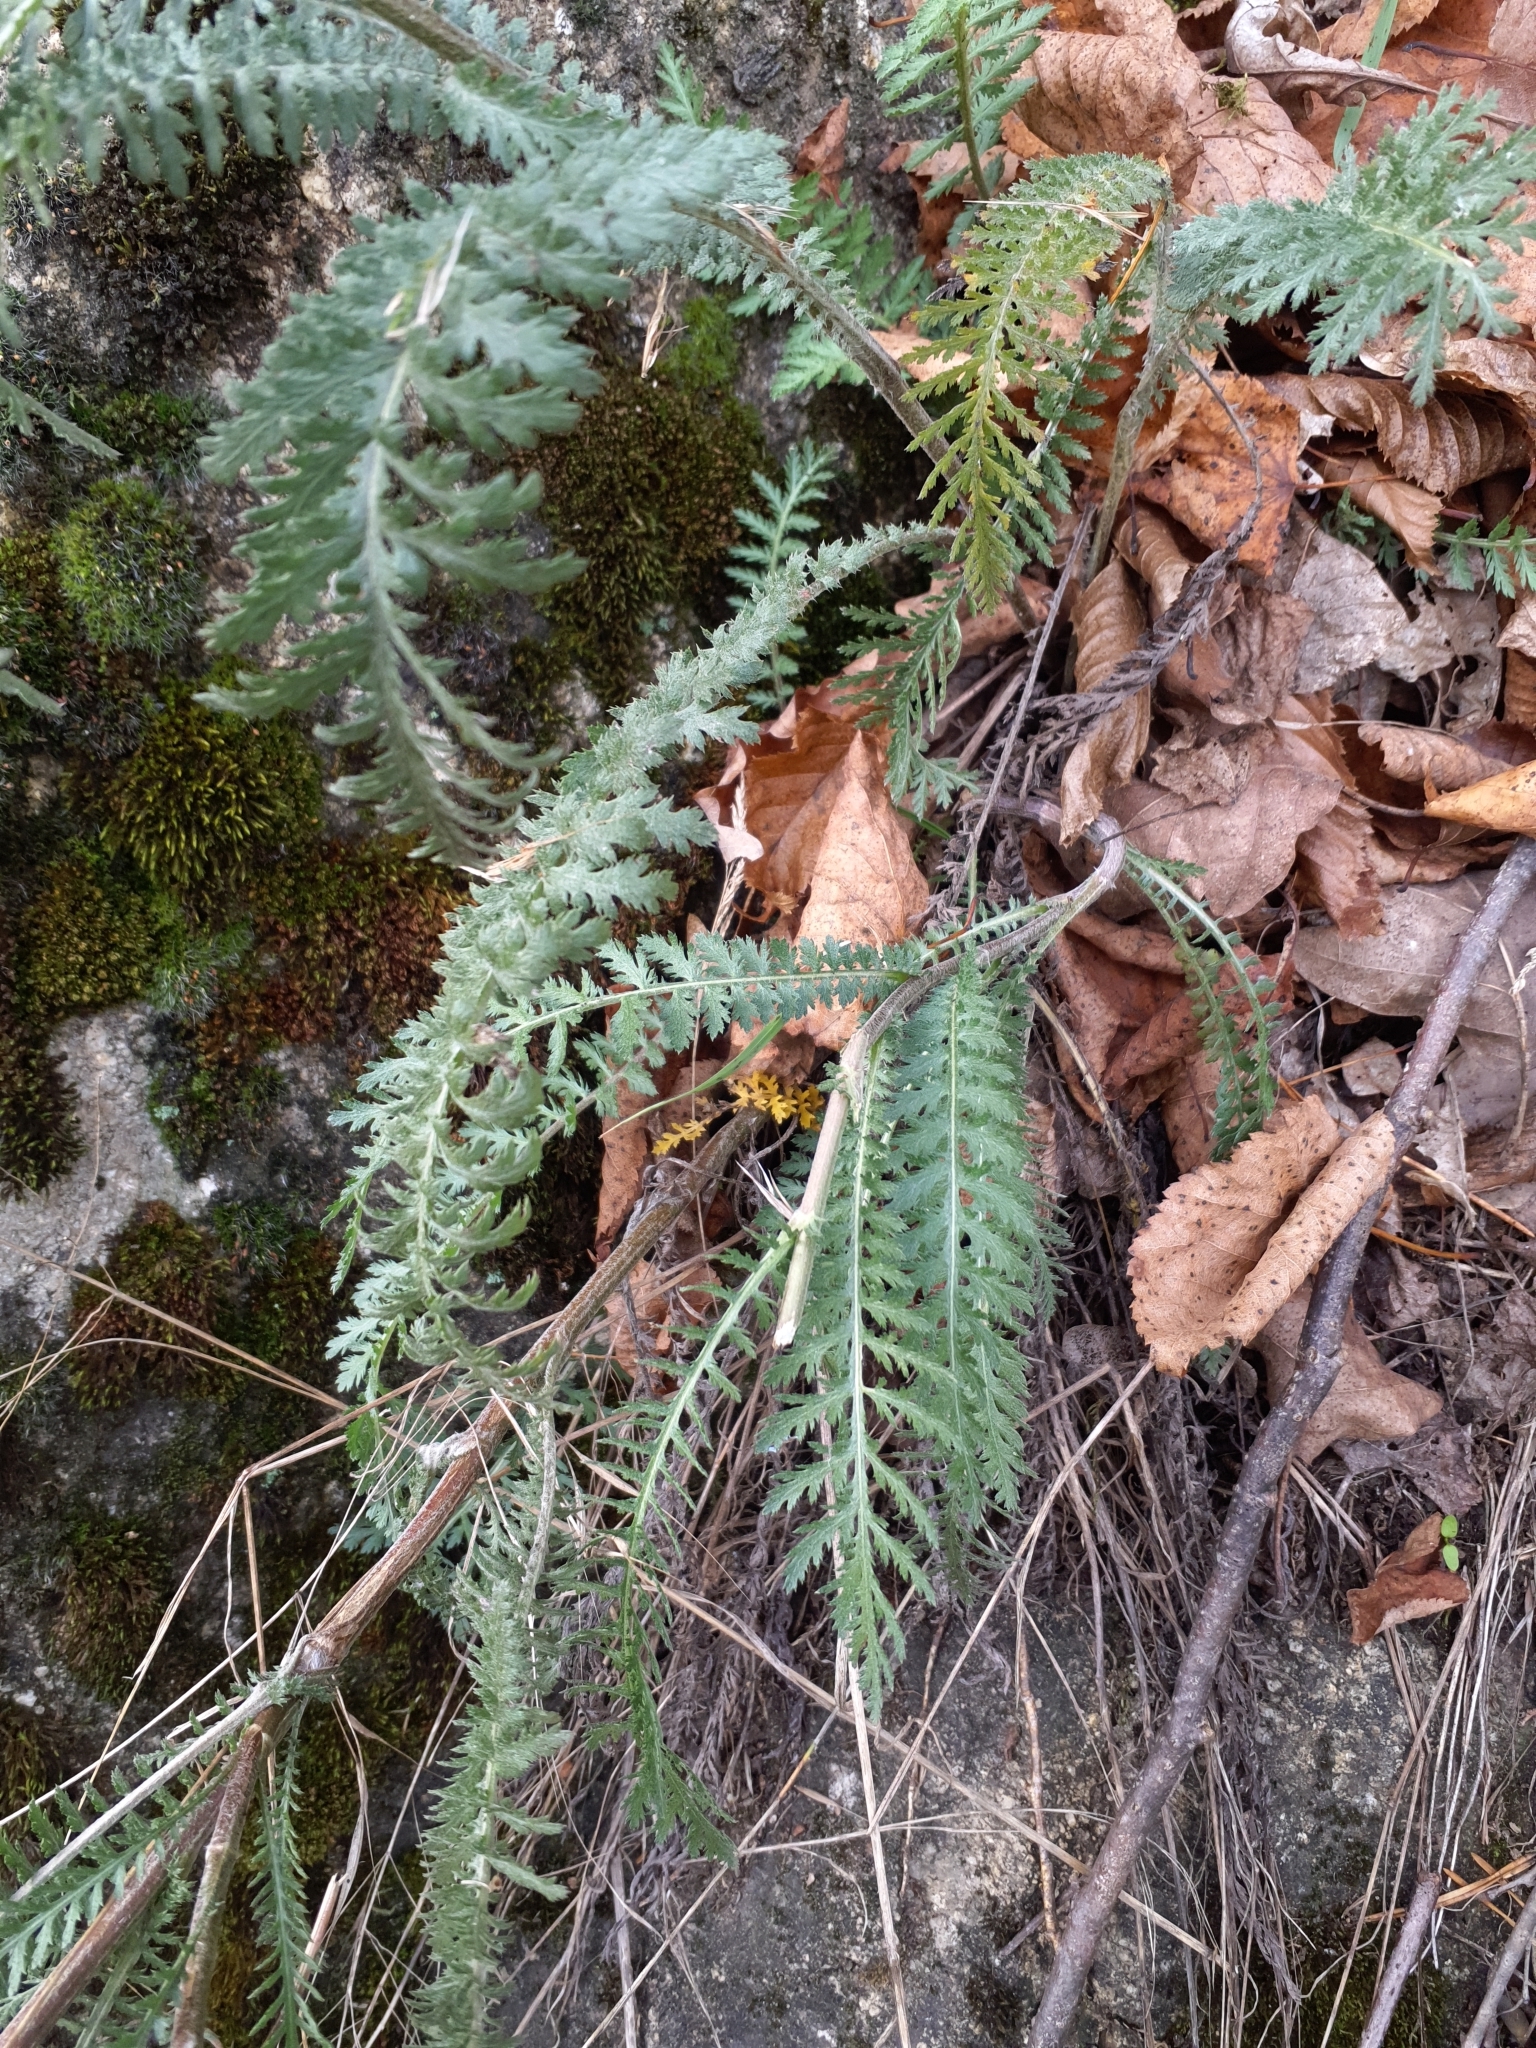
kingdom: Plantae
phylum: Tracheophyta
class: Magnoliopsida
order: Asterales
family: Asteraceae
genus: Achillea
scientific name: Achillea distans
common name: Tall yarrow
